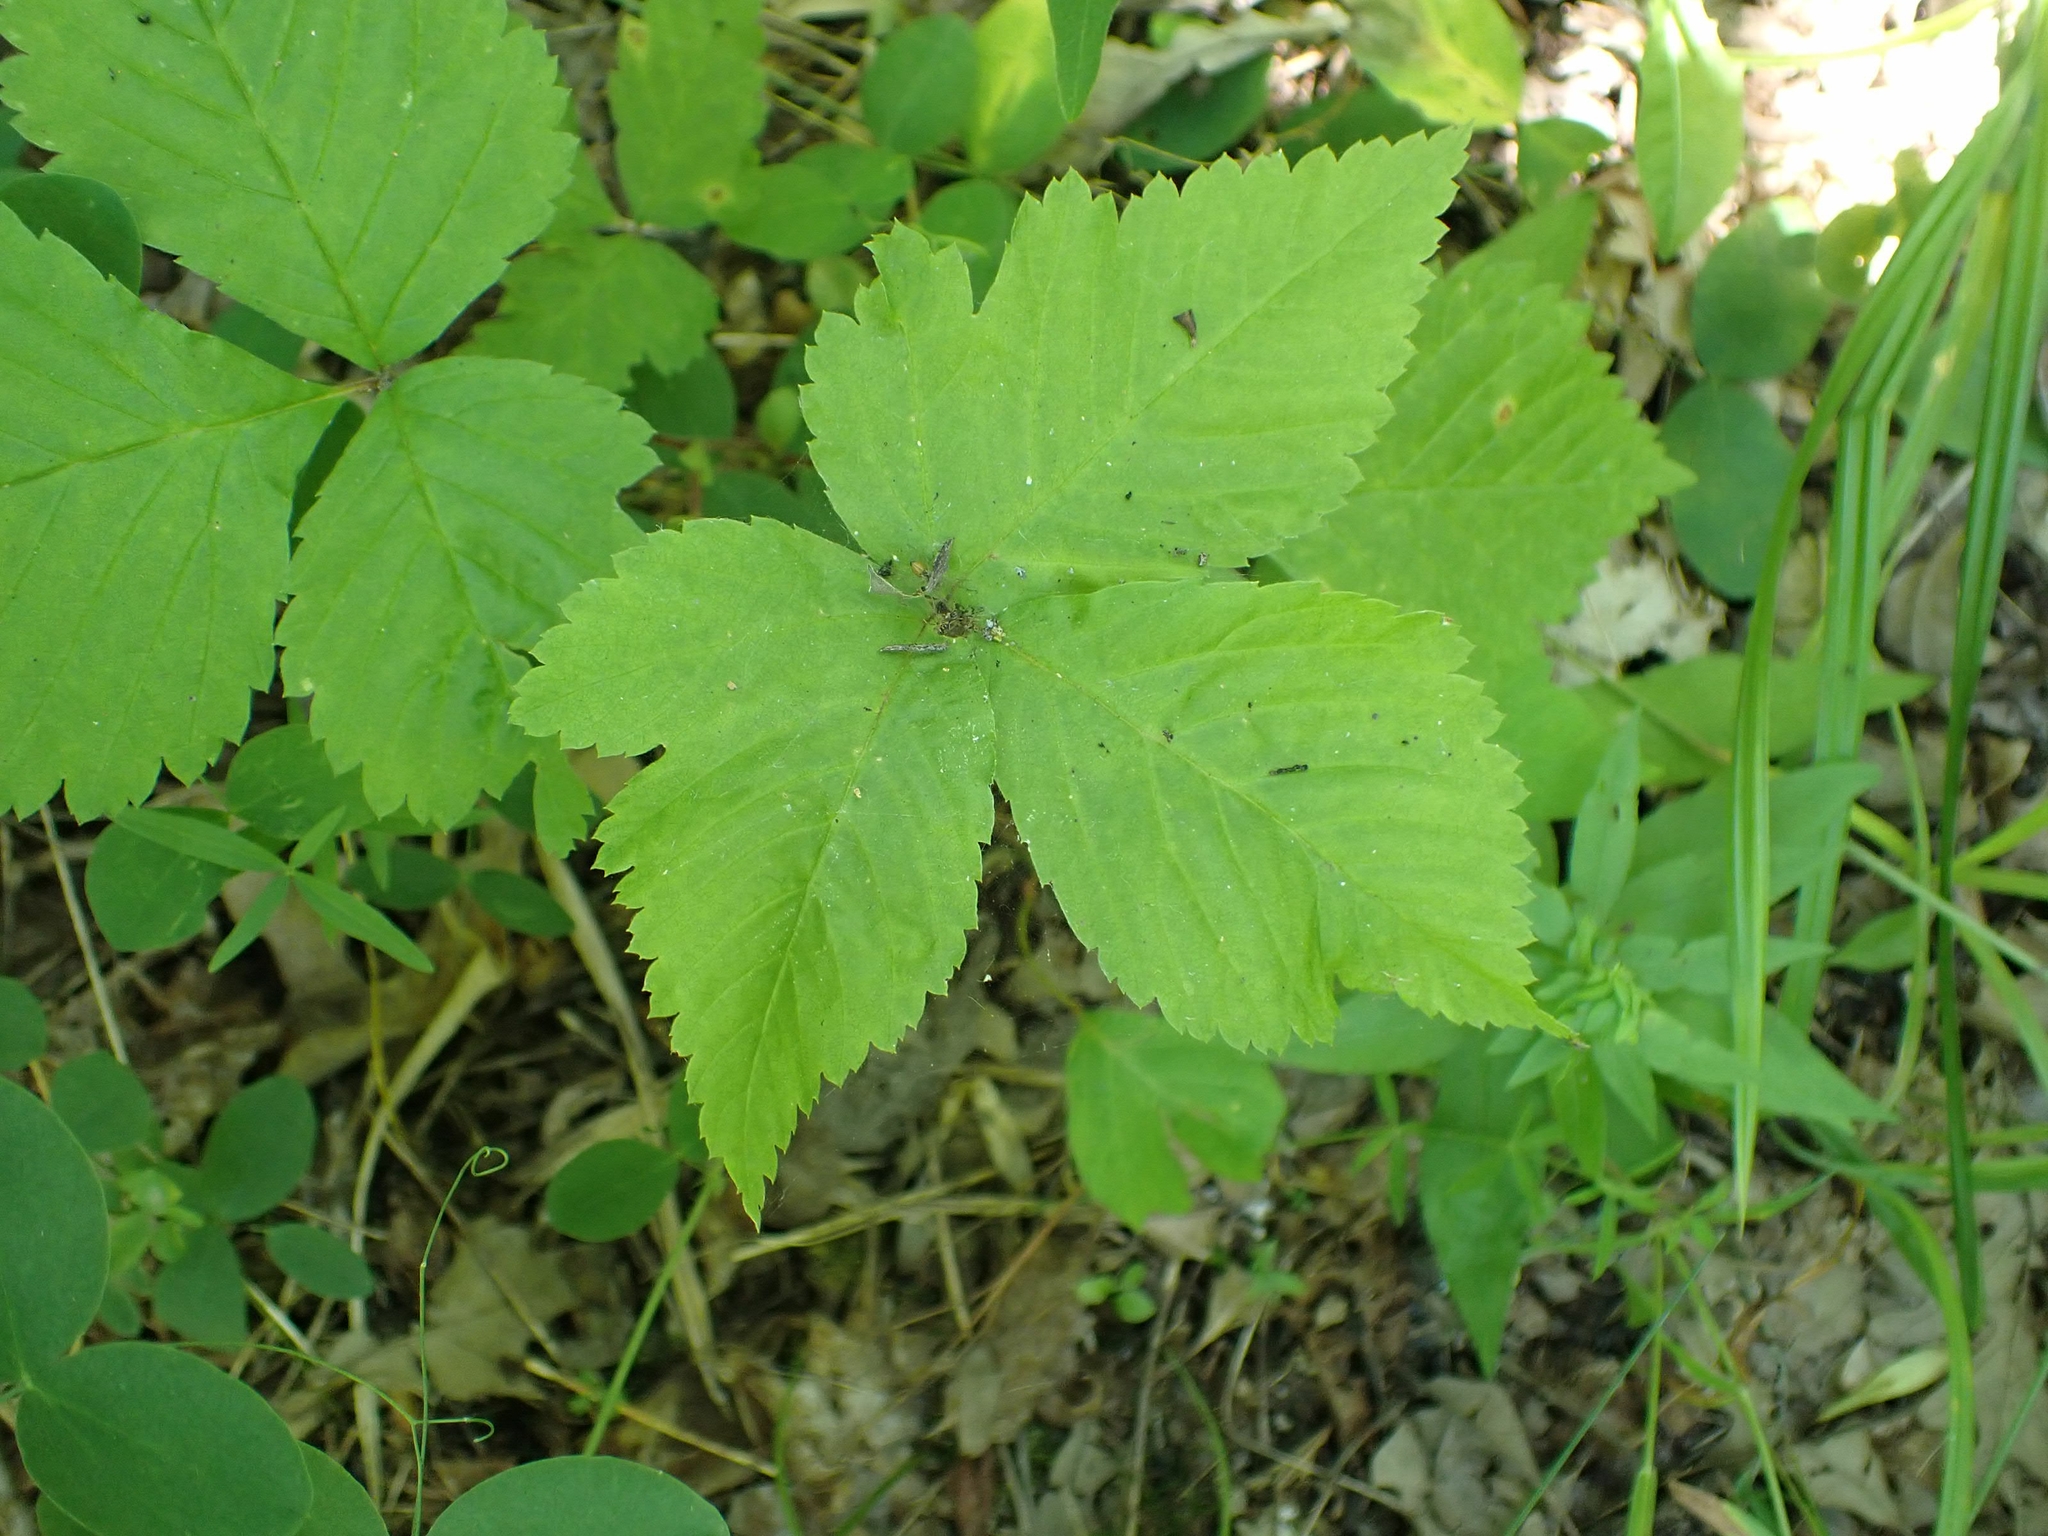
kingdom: Plantae
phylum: Tracheophyta
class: Magnoliopsida
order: Rosales
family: Rosaceae
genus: Rubus
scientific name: Rubus pubescens
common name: Dwarf raspberry
